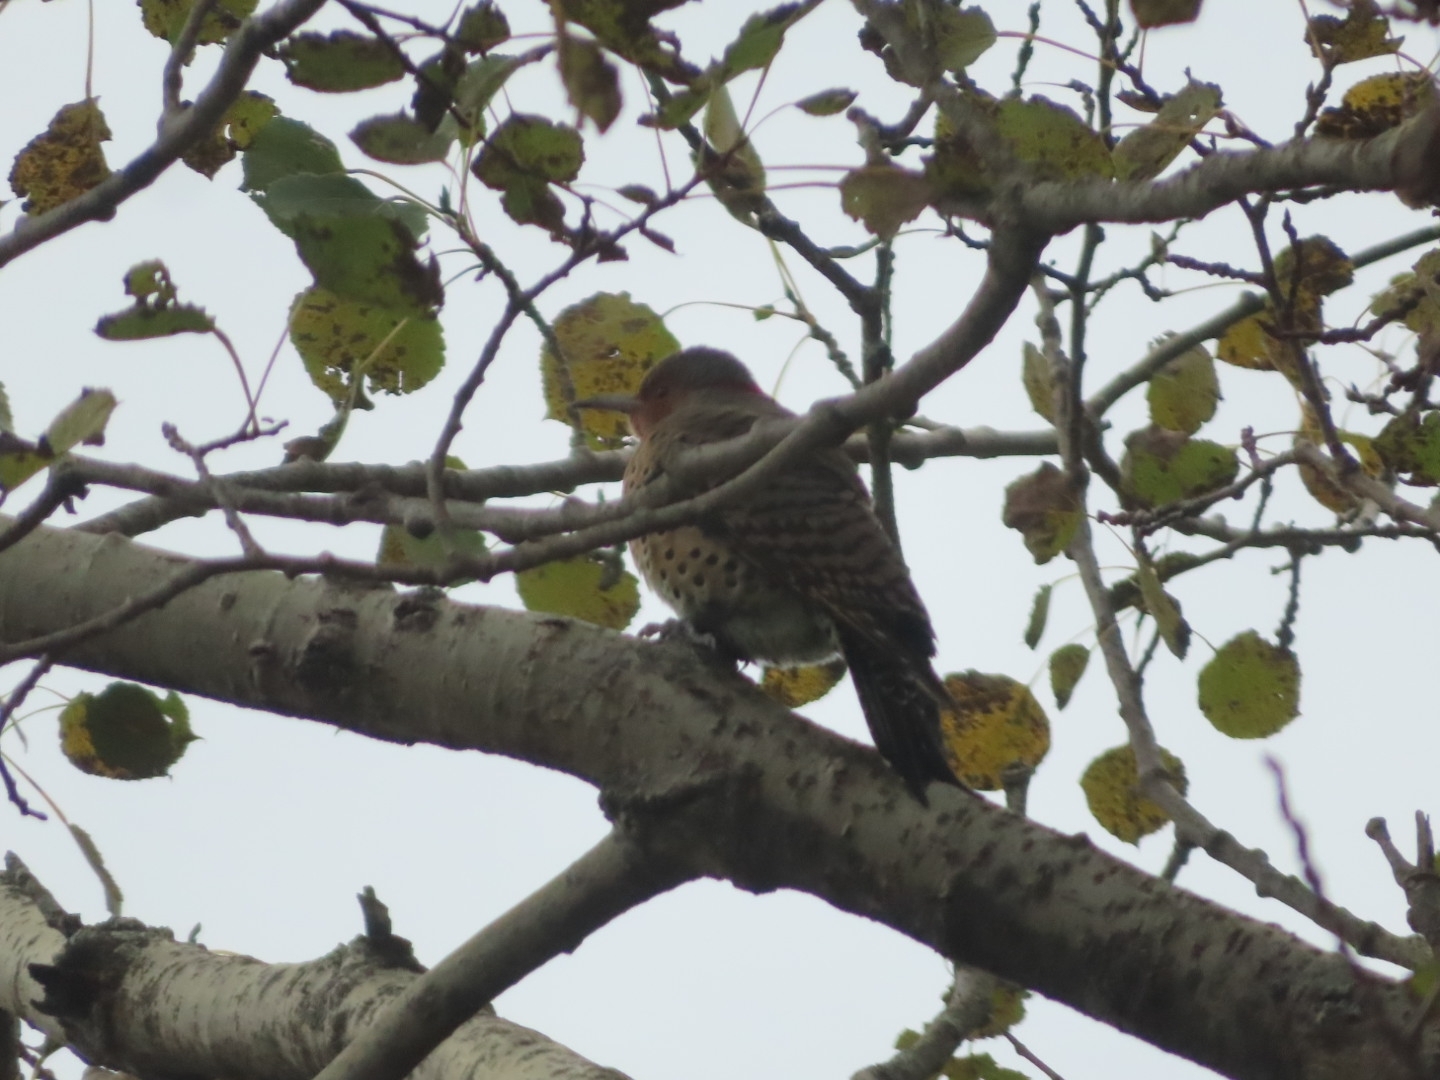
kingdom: Animalia
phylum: Chordata
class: Aves
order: Piciformes
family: Picidae
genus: Colaptes
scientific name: Colaptes auratus
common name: Northern flicker
